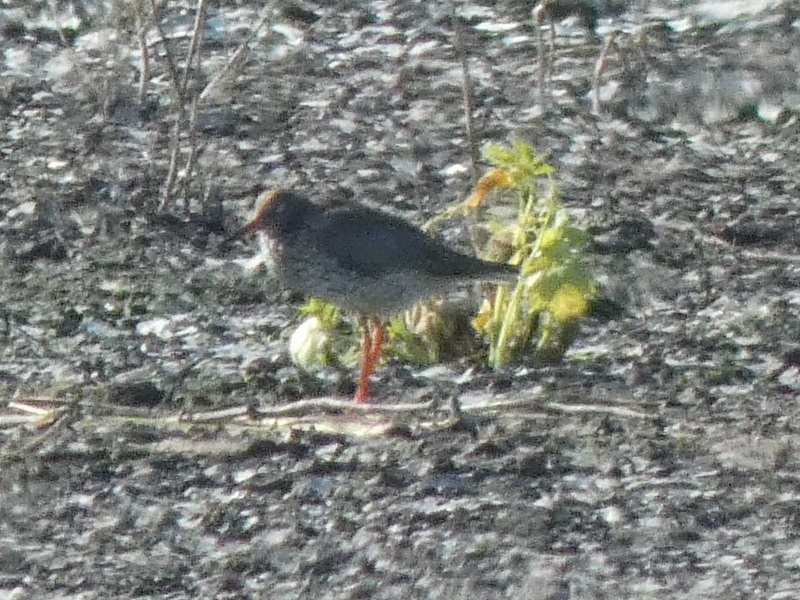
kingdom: Animalia
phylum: Chordata
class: Aves
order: Charadriiformes
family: Scolopacidae
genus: Tringa
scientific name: Tringa totanus
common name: Common redshank
